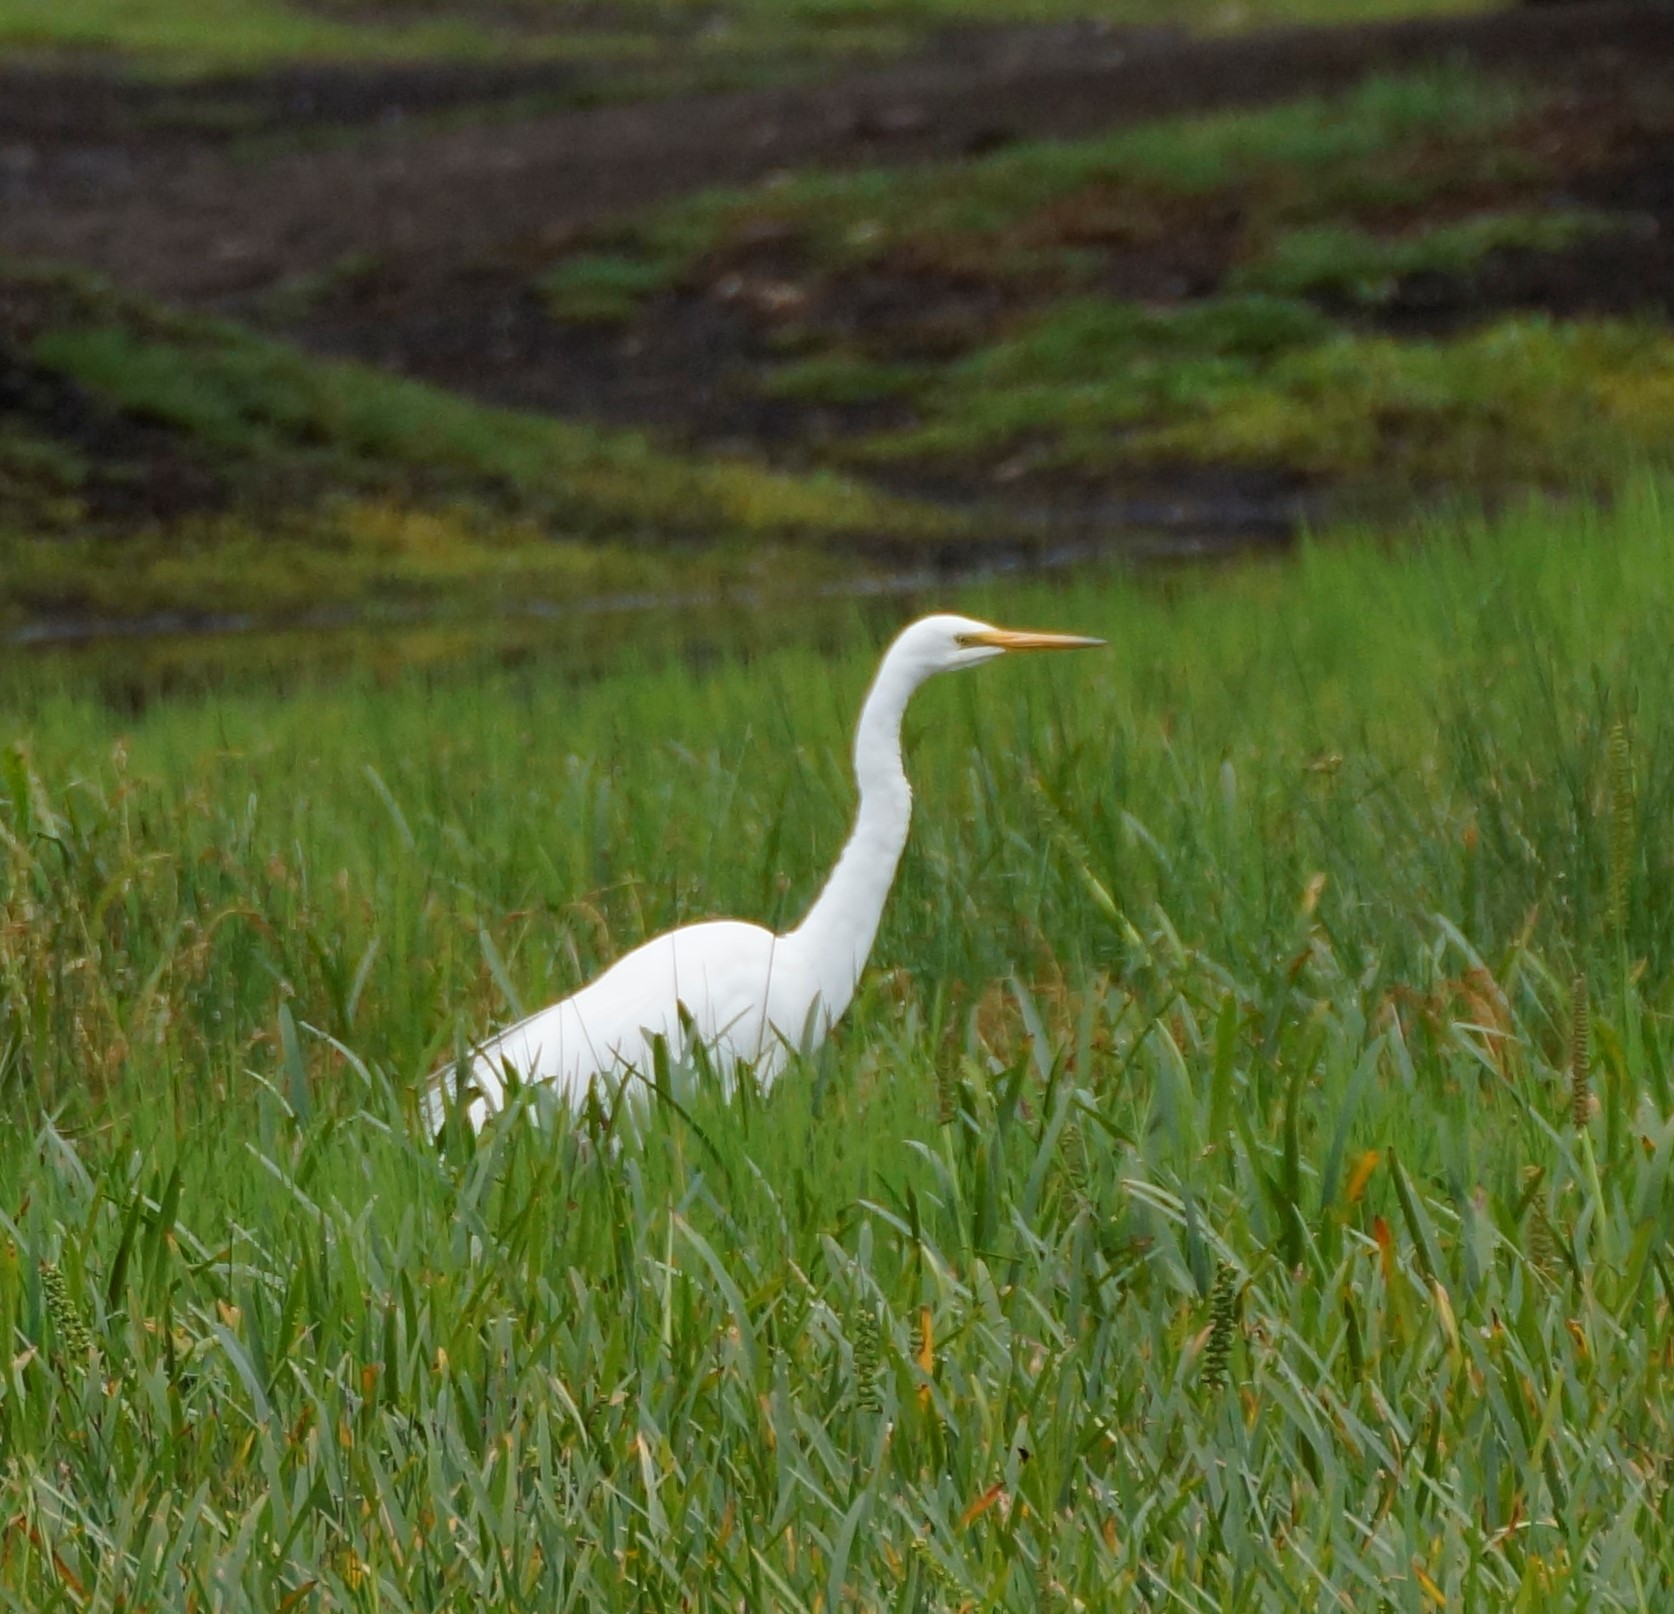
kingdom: Animalia
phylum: Chordata
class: Aves
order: Pelecaniformes
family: Ardeidae
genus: Ardea
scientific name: Ardea alba
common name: Great egret
